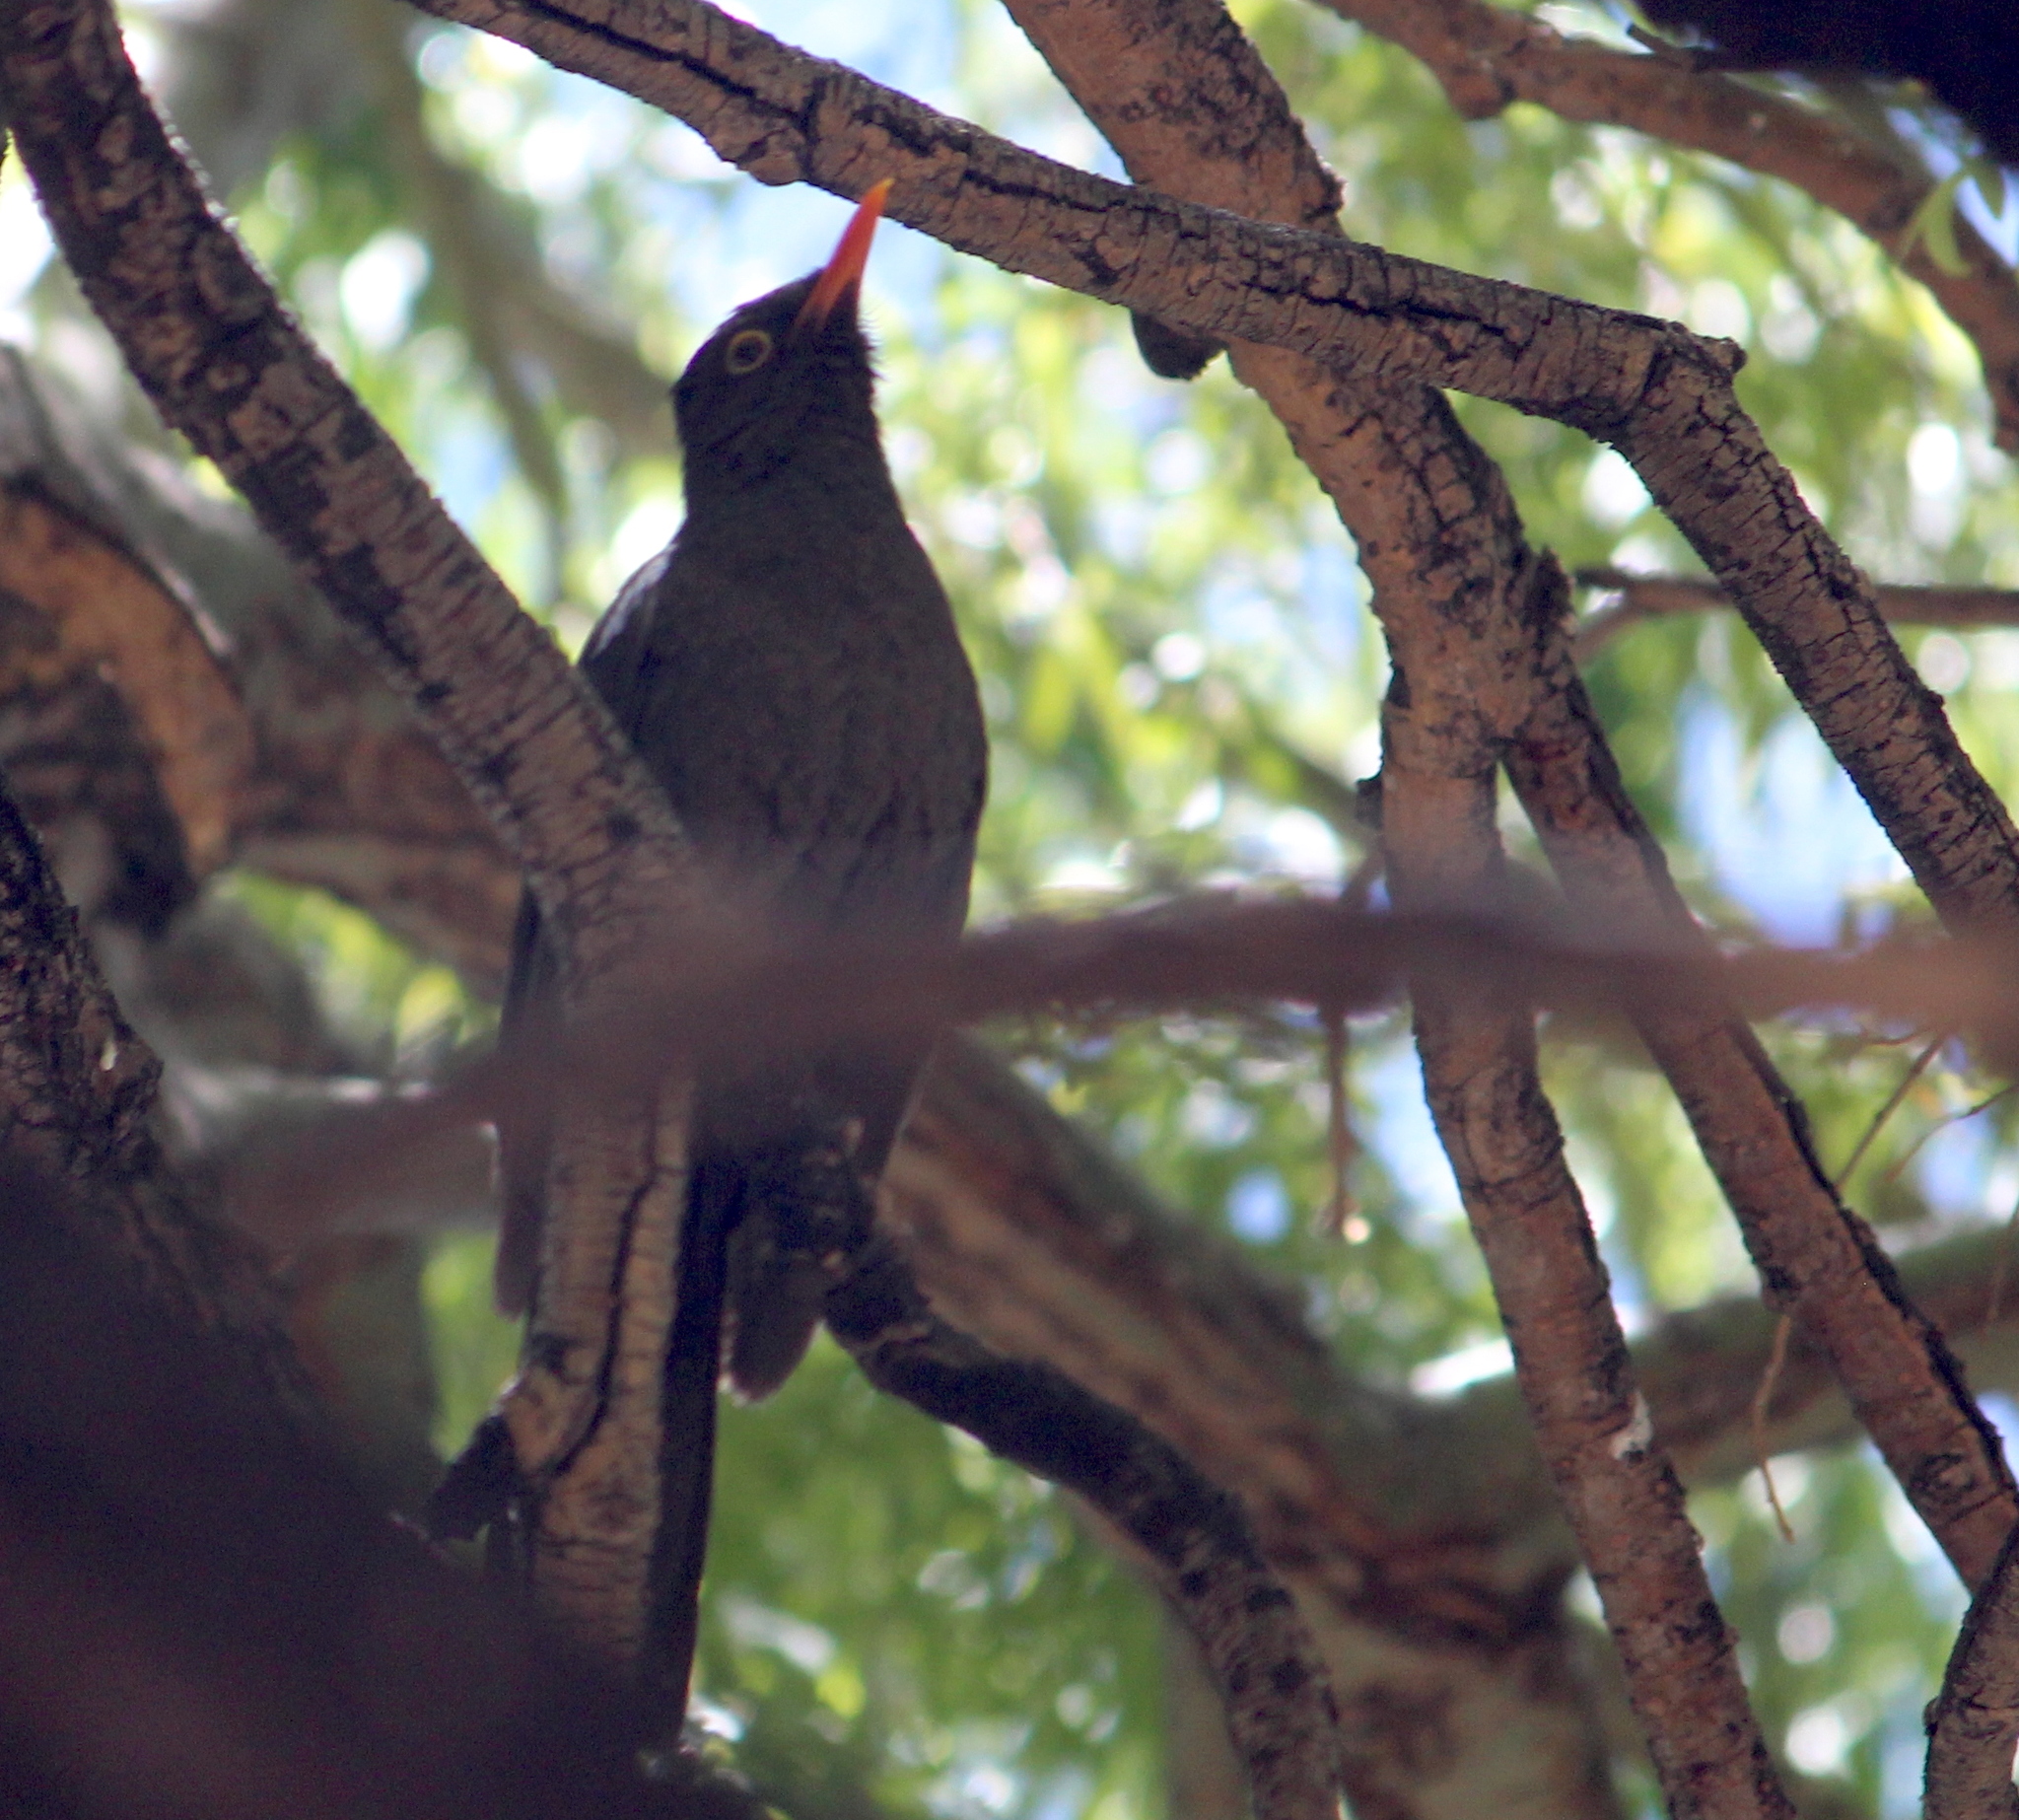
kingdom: Animalia
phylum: Chordata
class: Aves
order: Passeriformes
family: Turdidae
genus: Turdus
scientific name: Turdus chiguanco
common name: Chiguanco thrush
